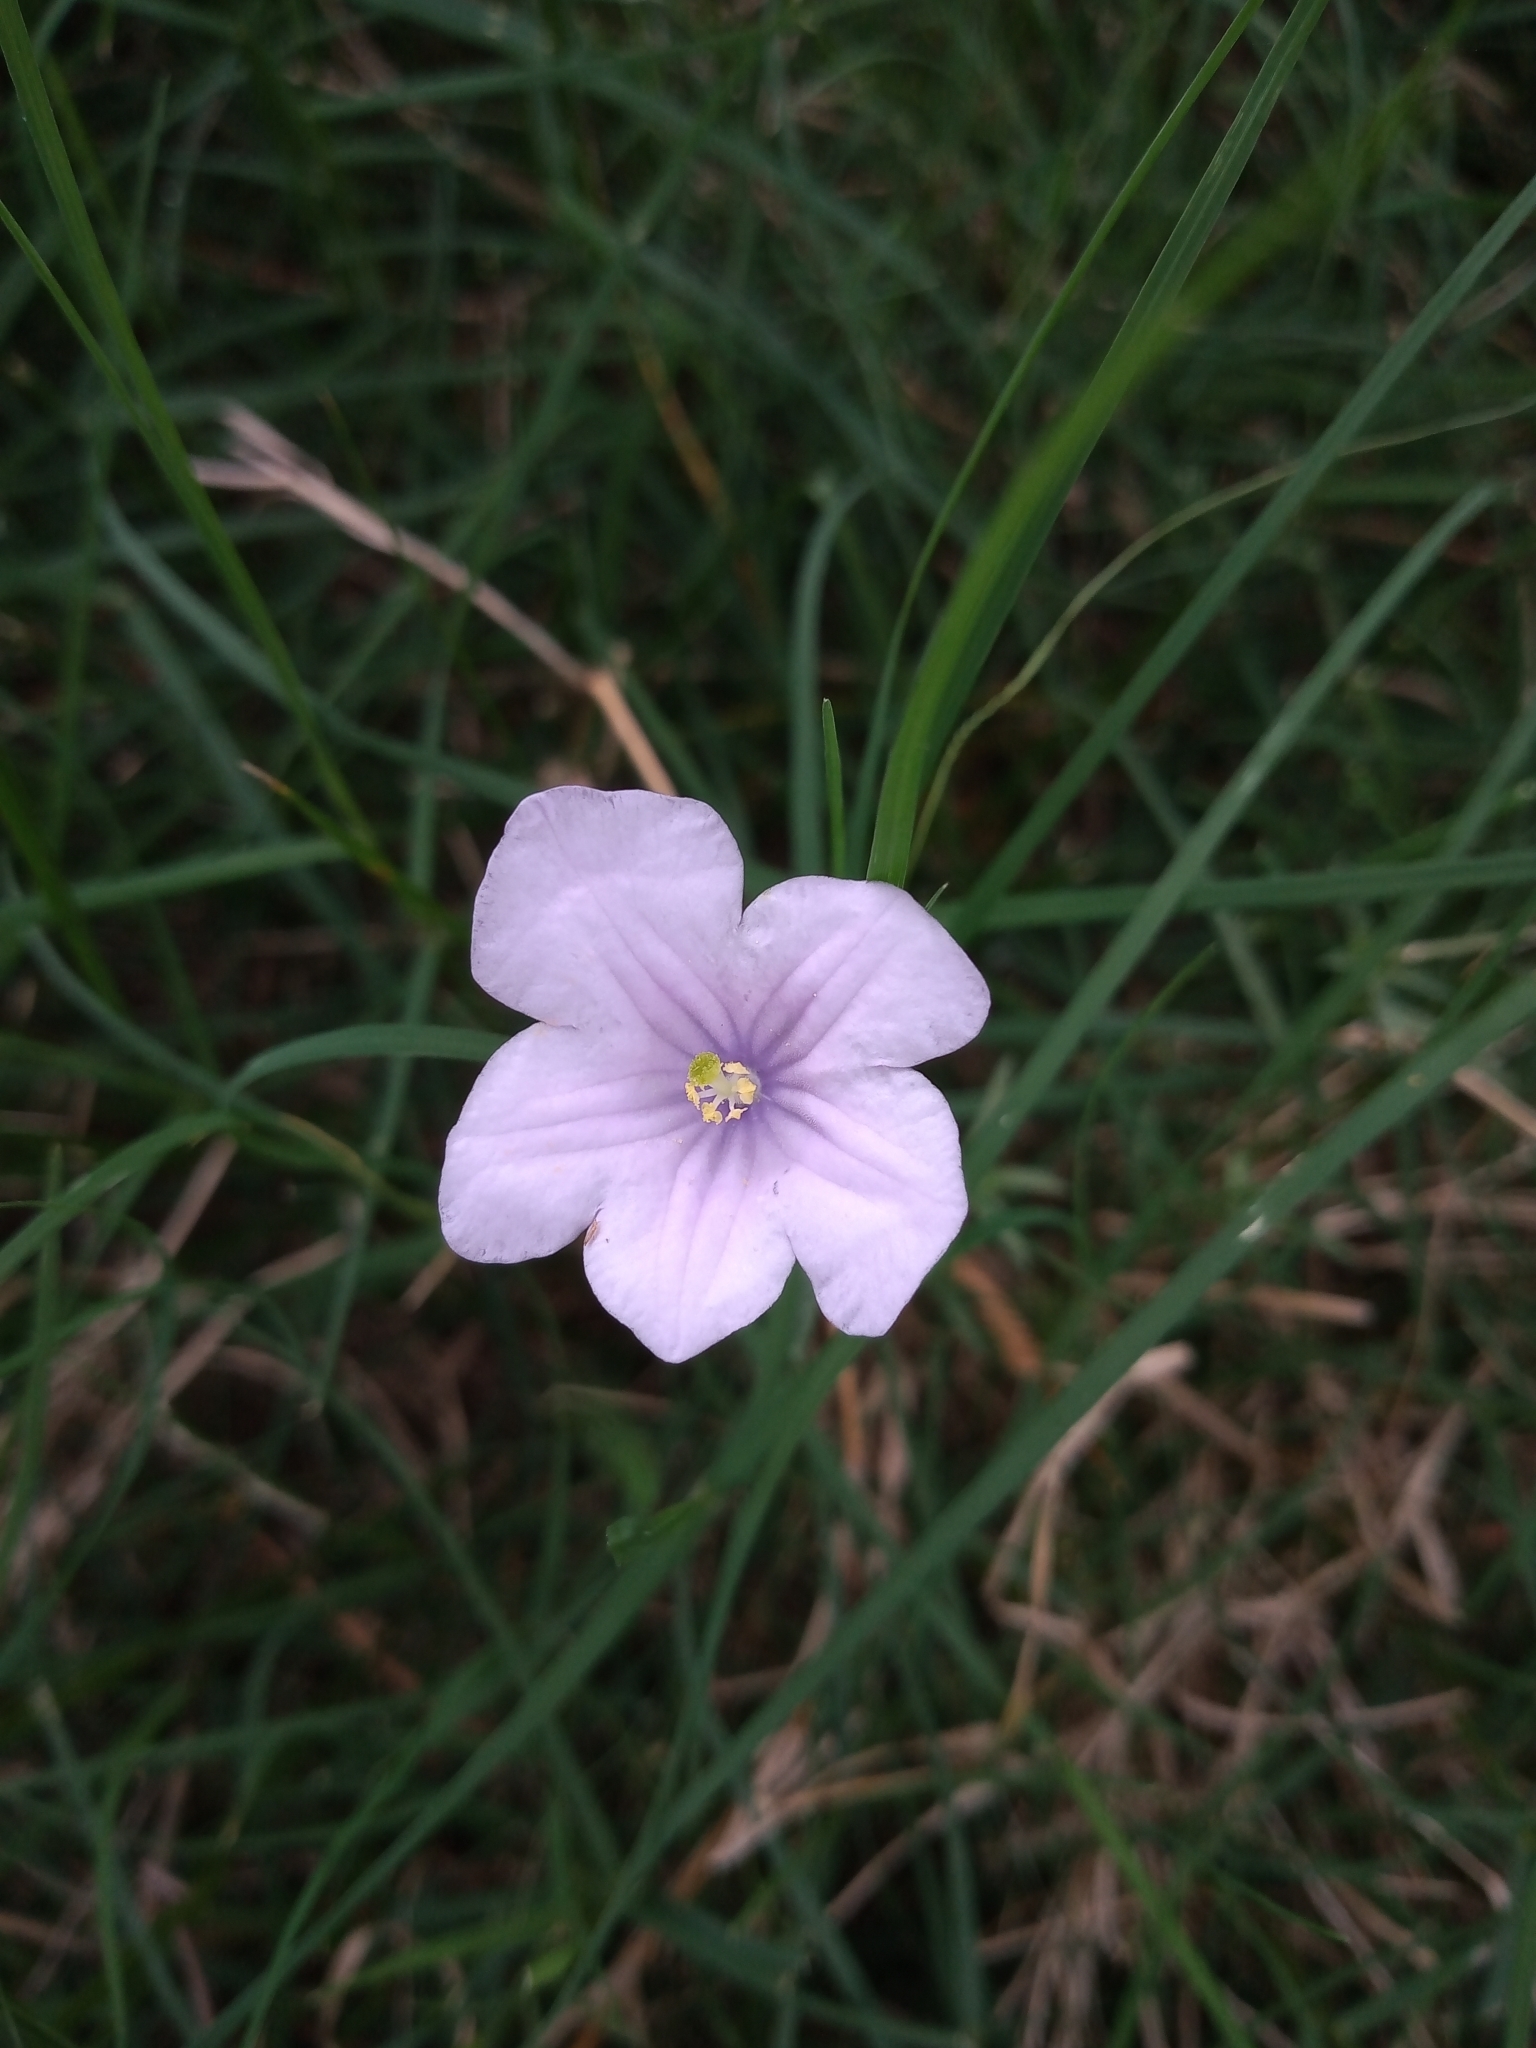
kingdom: Plantae
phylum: Tracheophyta
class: Magnoliopsida
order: Solanales
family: Solanaceae
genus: Nierembergia
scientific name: Nierembergia aristata
